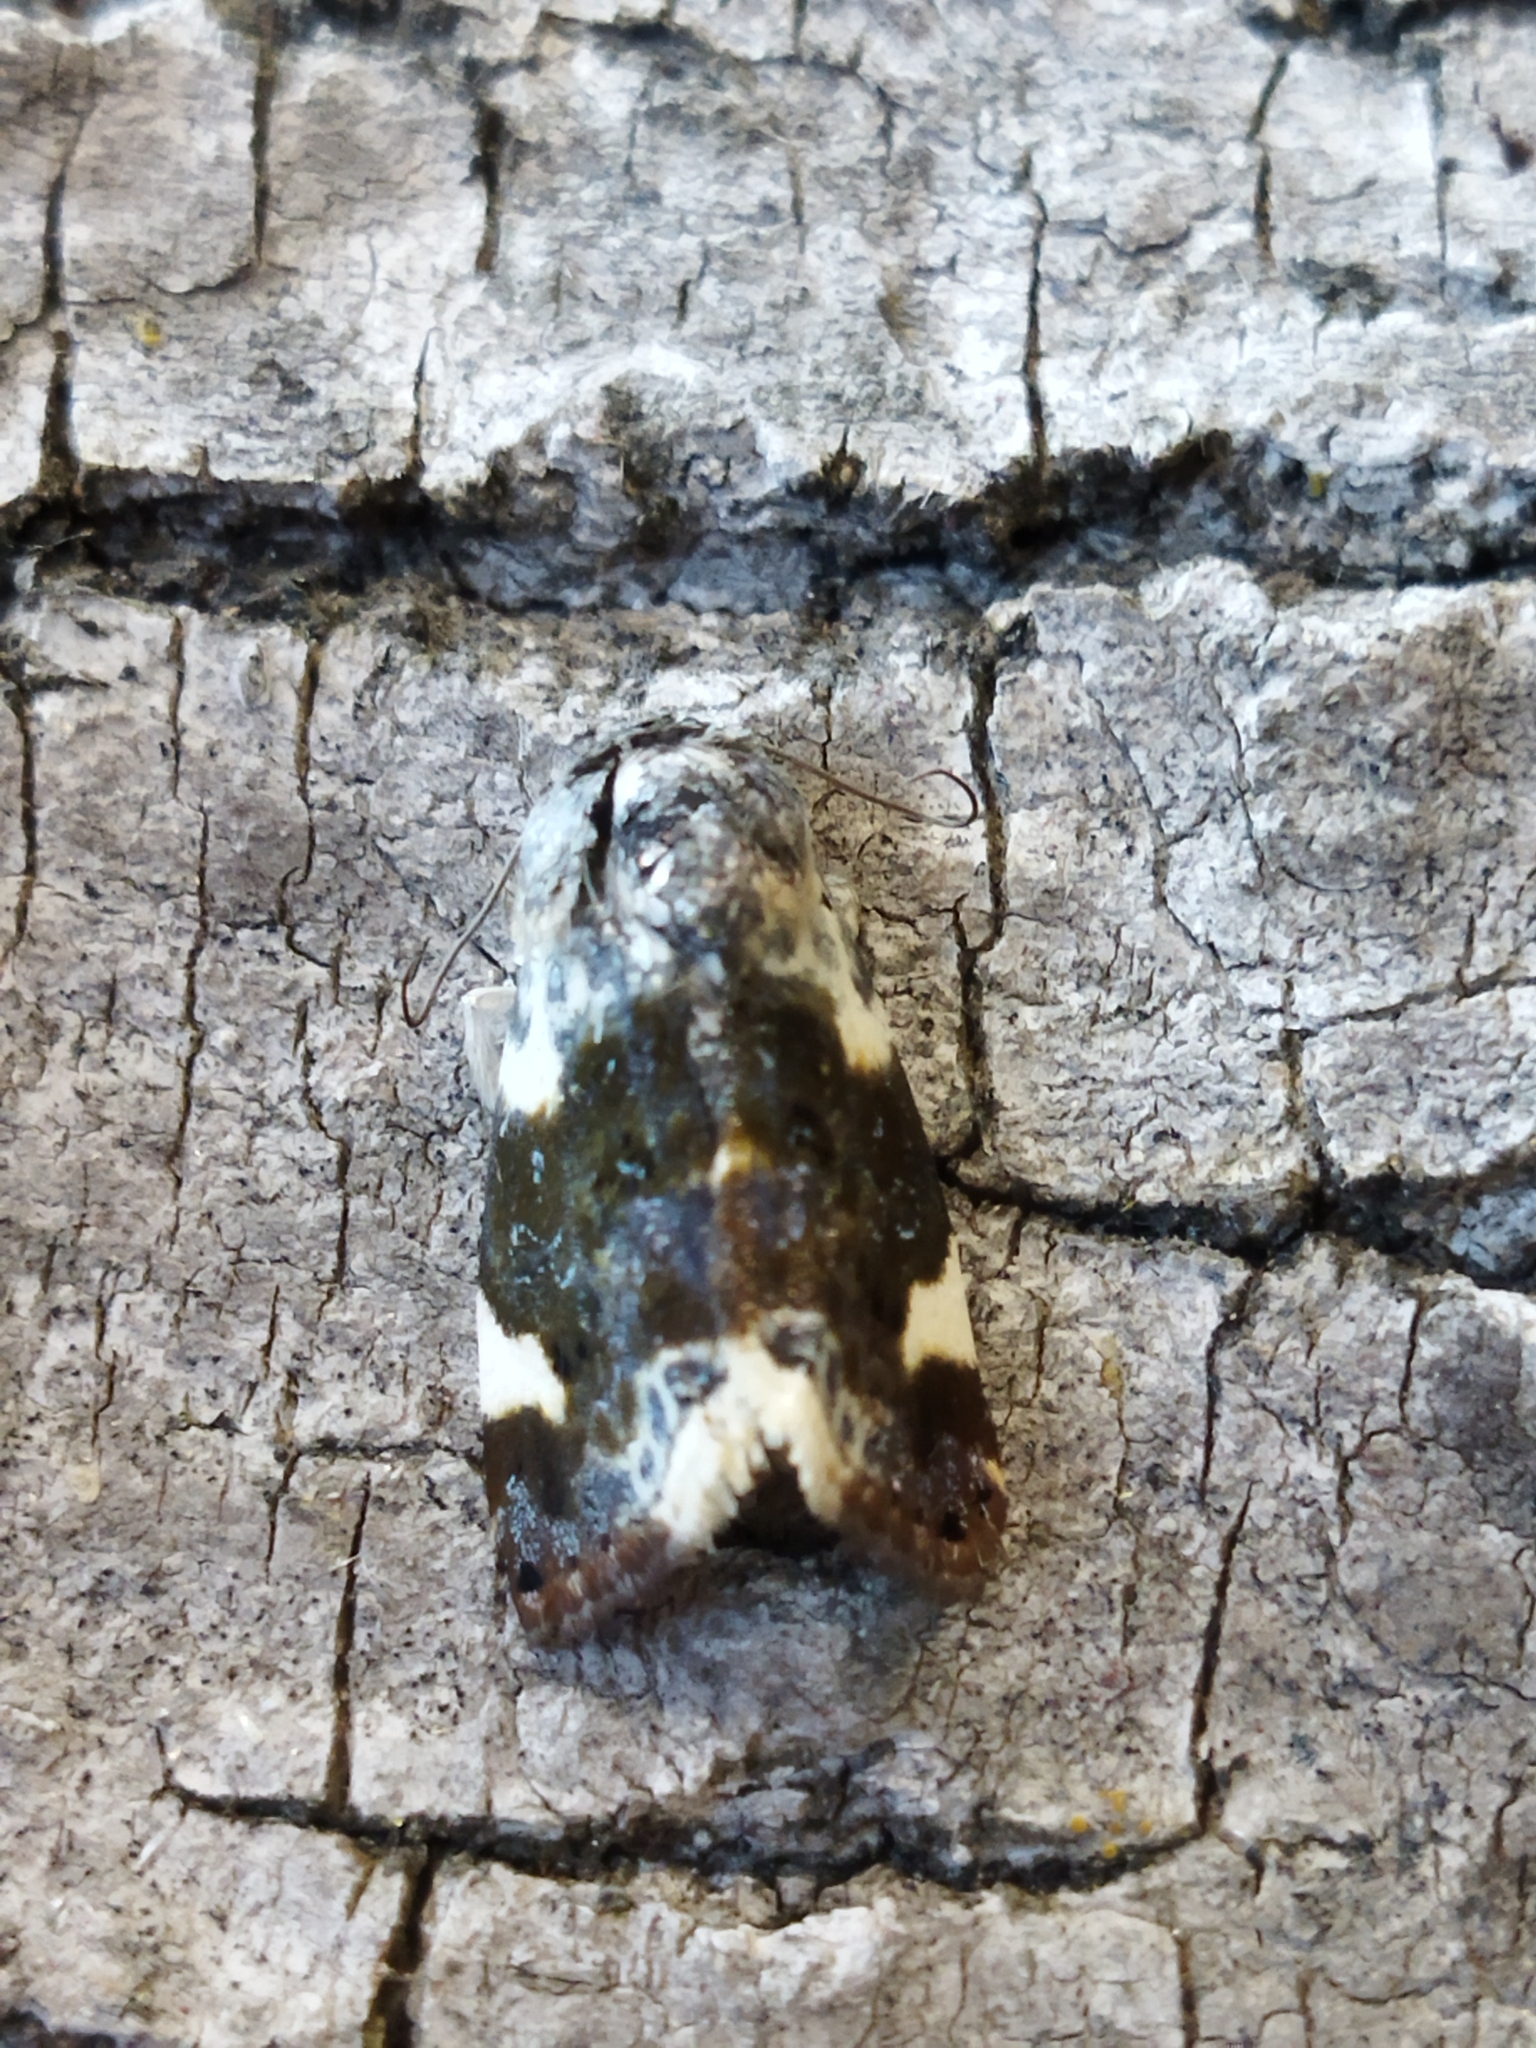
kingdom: Animalia
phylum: Arthropoda
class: Insecta
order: Lepidoptera
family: Noctuidae
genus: Acontia
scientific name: Acontia lucida
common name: Pale shoulder
